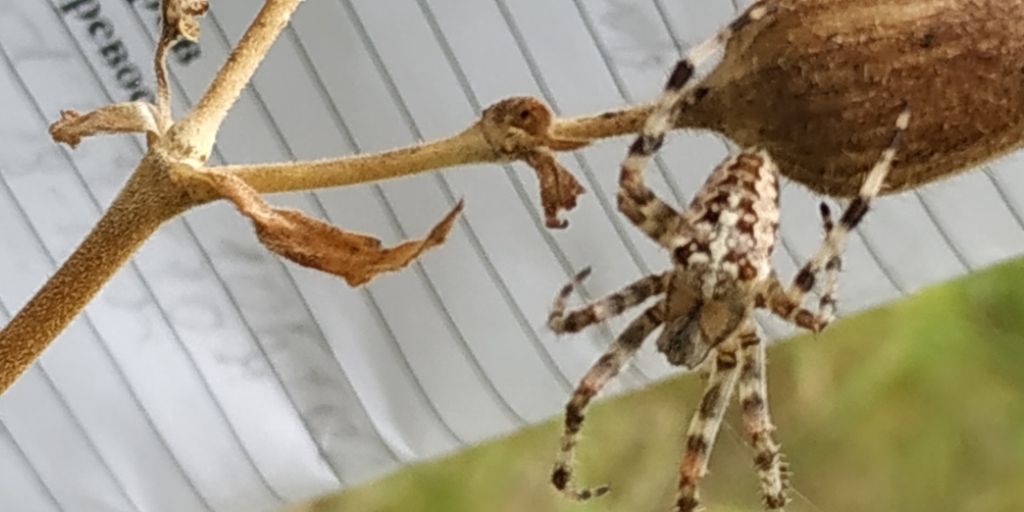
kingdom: Animalia
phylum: Arthropoda
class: Arachnida
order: Araneae
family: Araneidae
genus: Araneus
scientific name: Araneus diadematus
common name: Cross orbweaver
